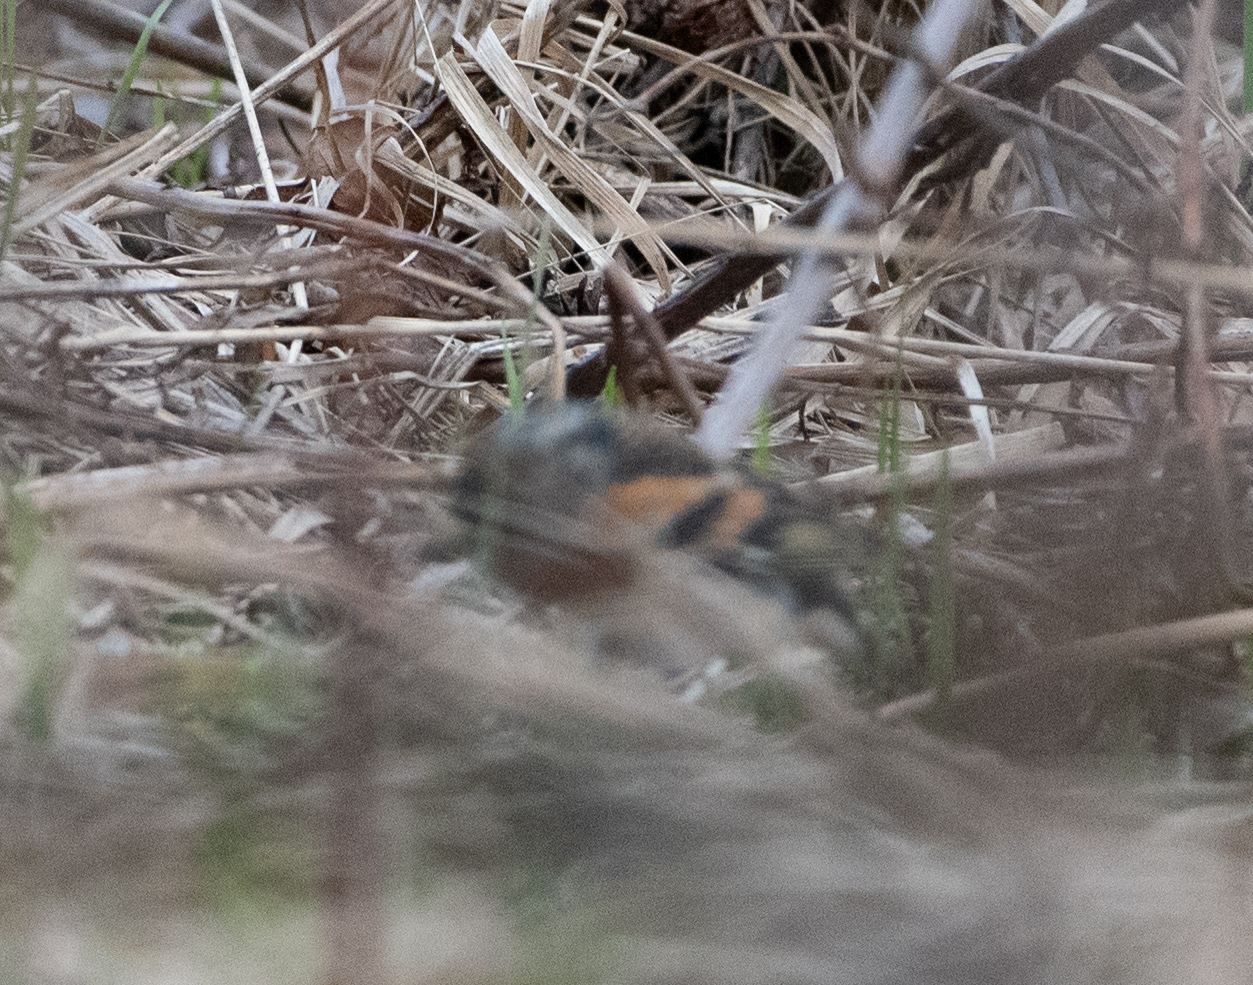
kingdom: Animalia
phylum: Chordata
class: Aves
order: Passeriformes
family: Fringillidae
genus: Fringilla
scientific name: Fringilla montifringilla
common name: Brambling
